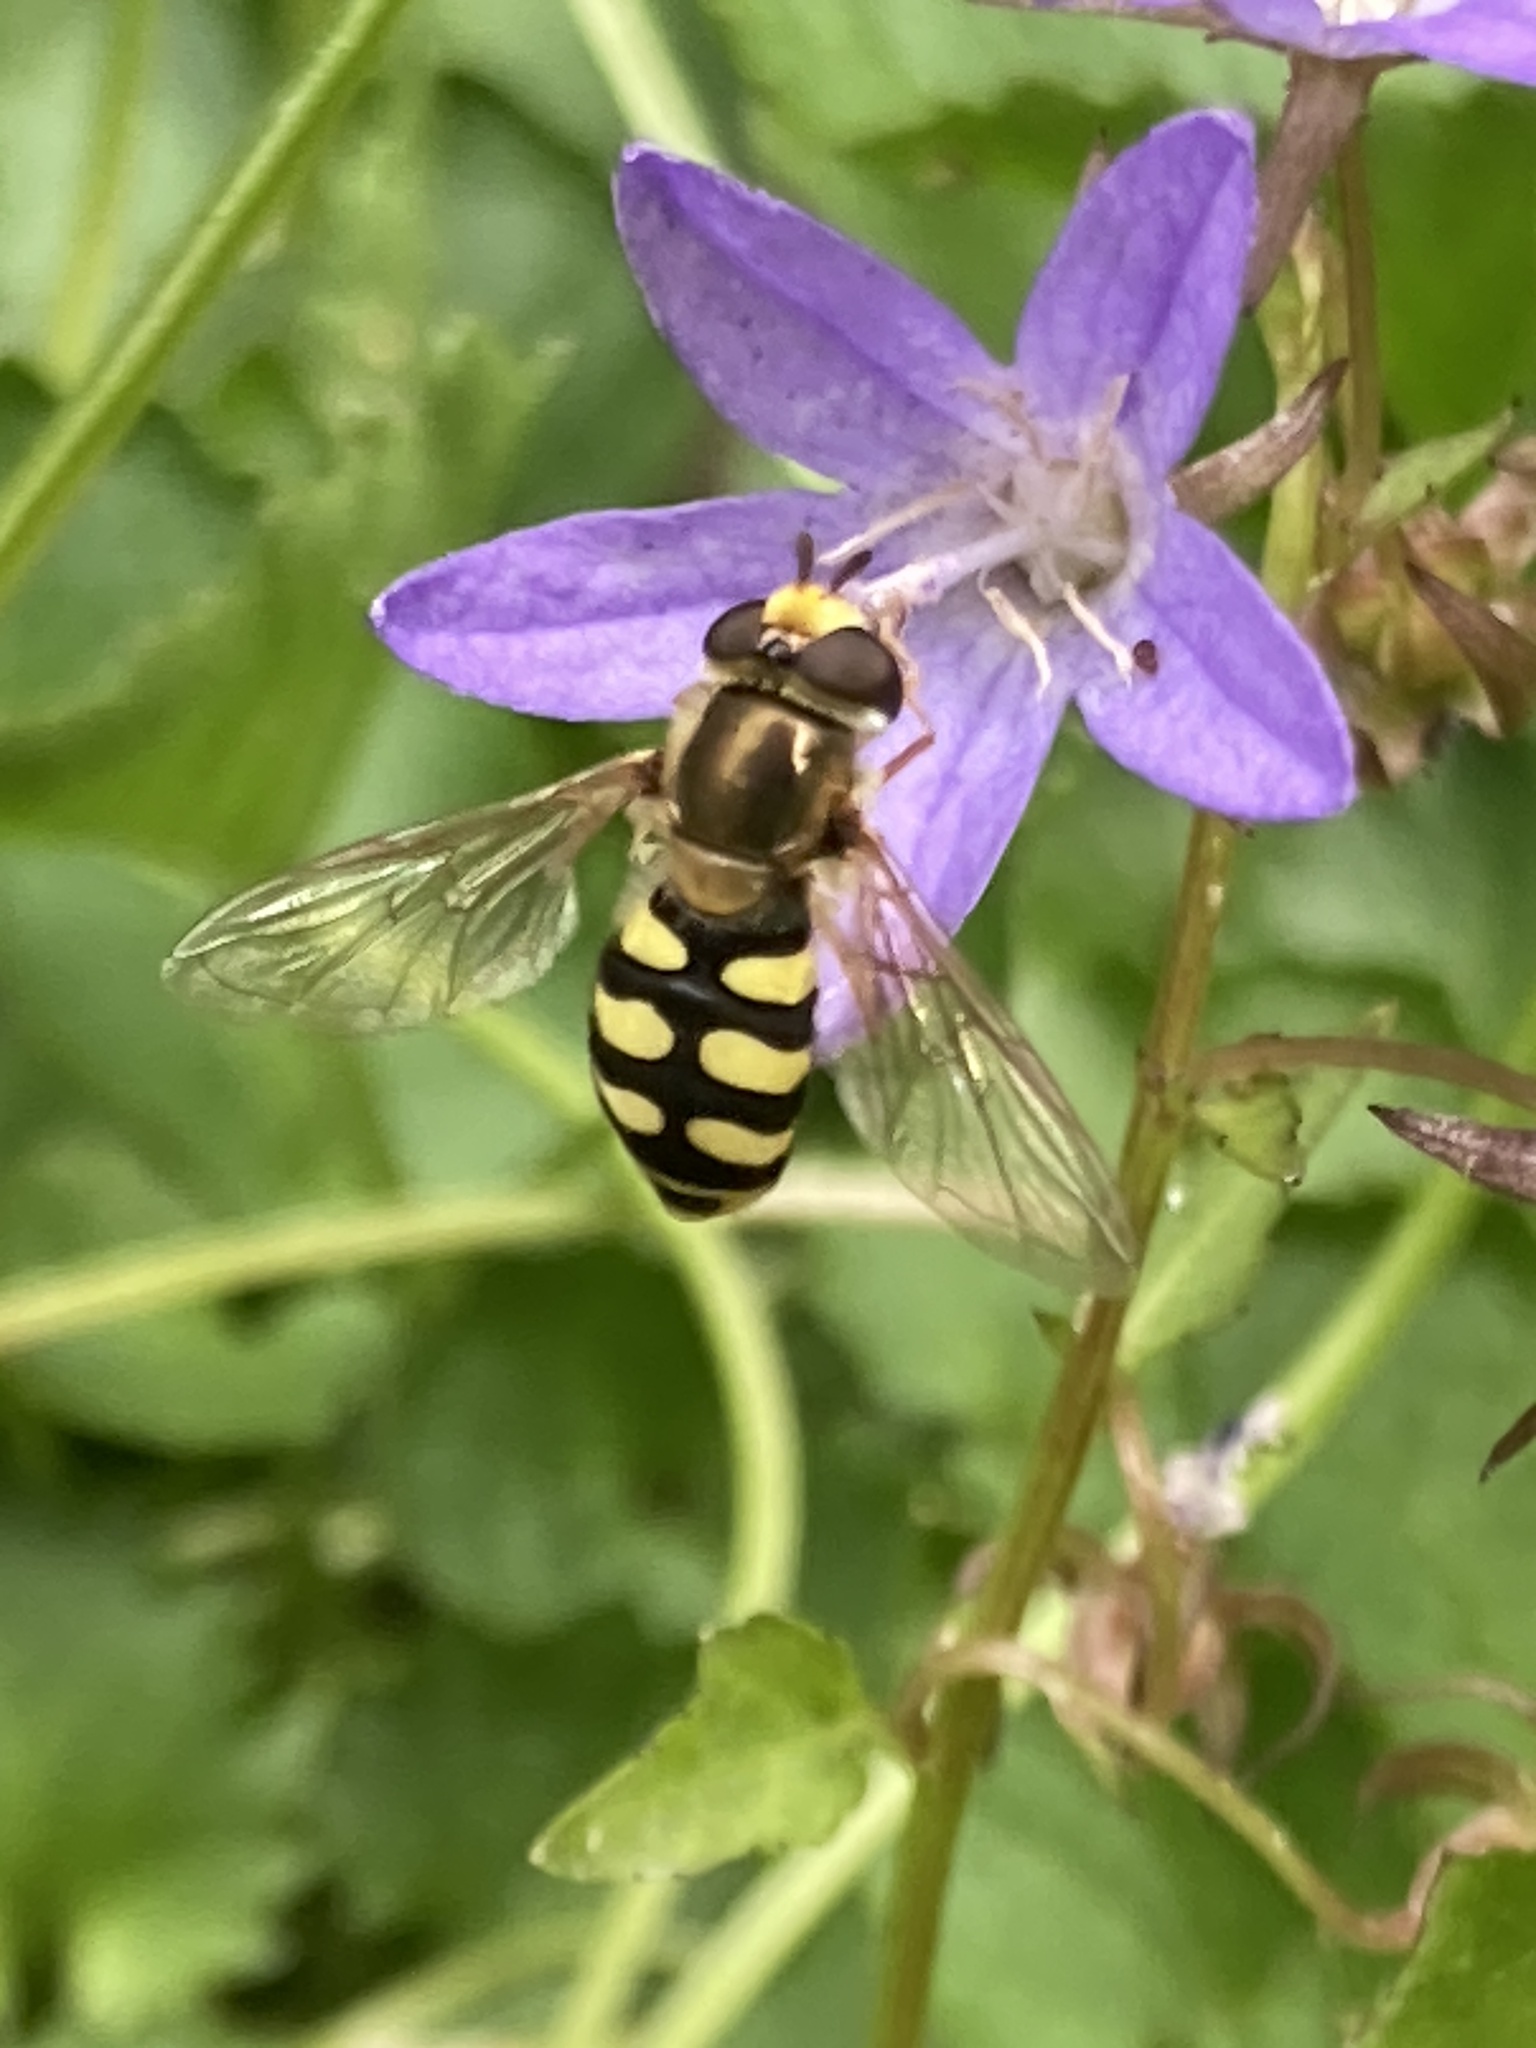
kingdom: Animalia
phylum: Arthropoda
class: Insecta
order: Diptera
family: Syrphidae
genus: Eupeodes
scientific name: Eupeodes corollae
